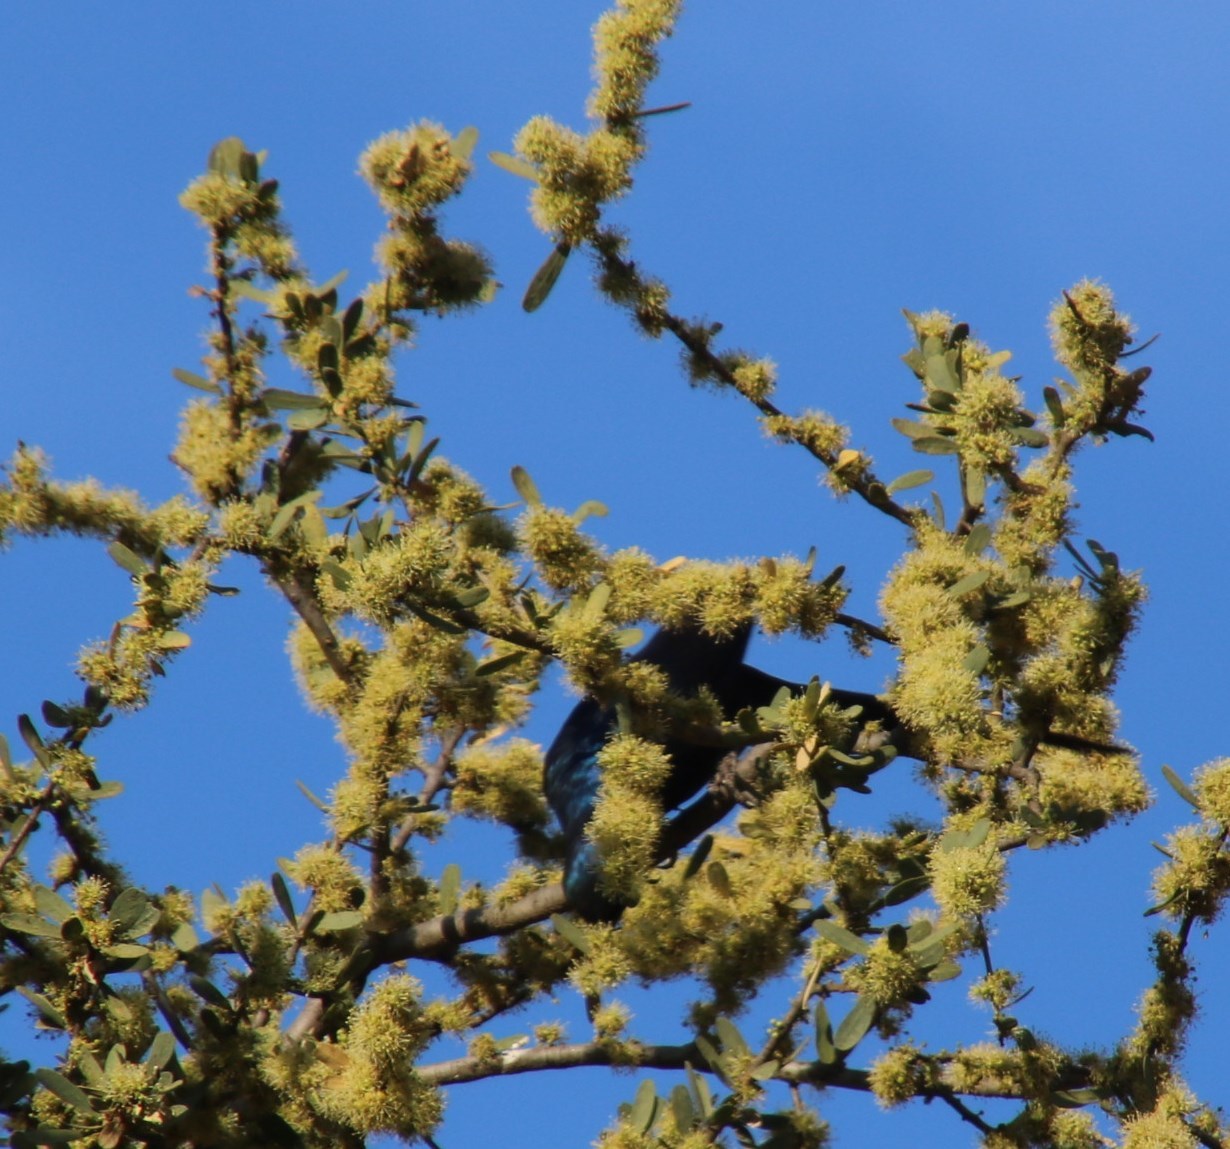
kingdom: Animalia
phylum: Chordata
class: Aves
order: Passeriformes
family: Sturnidae
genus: Lamprotornis
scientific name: Lamprotornis mevesii
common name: Meves's starling
